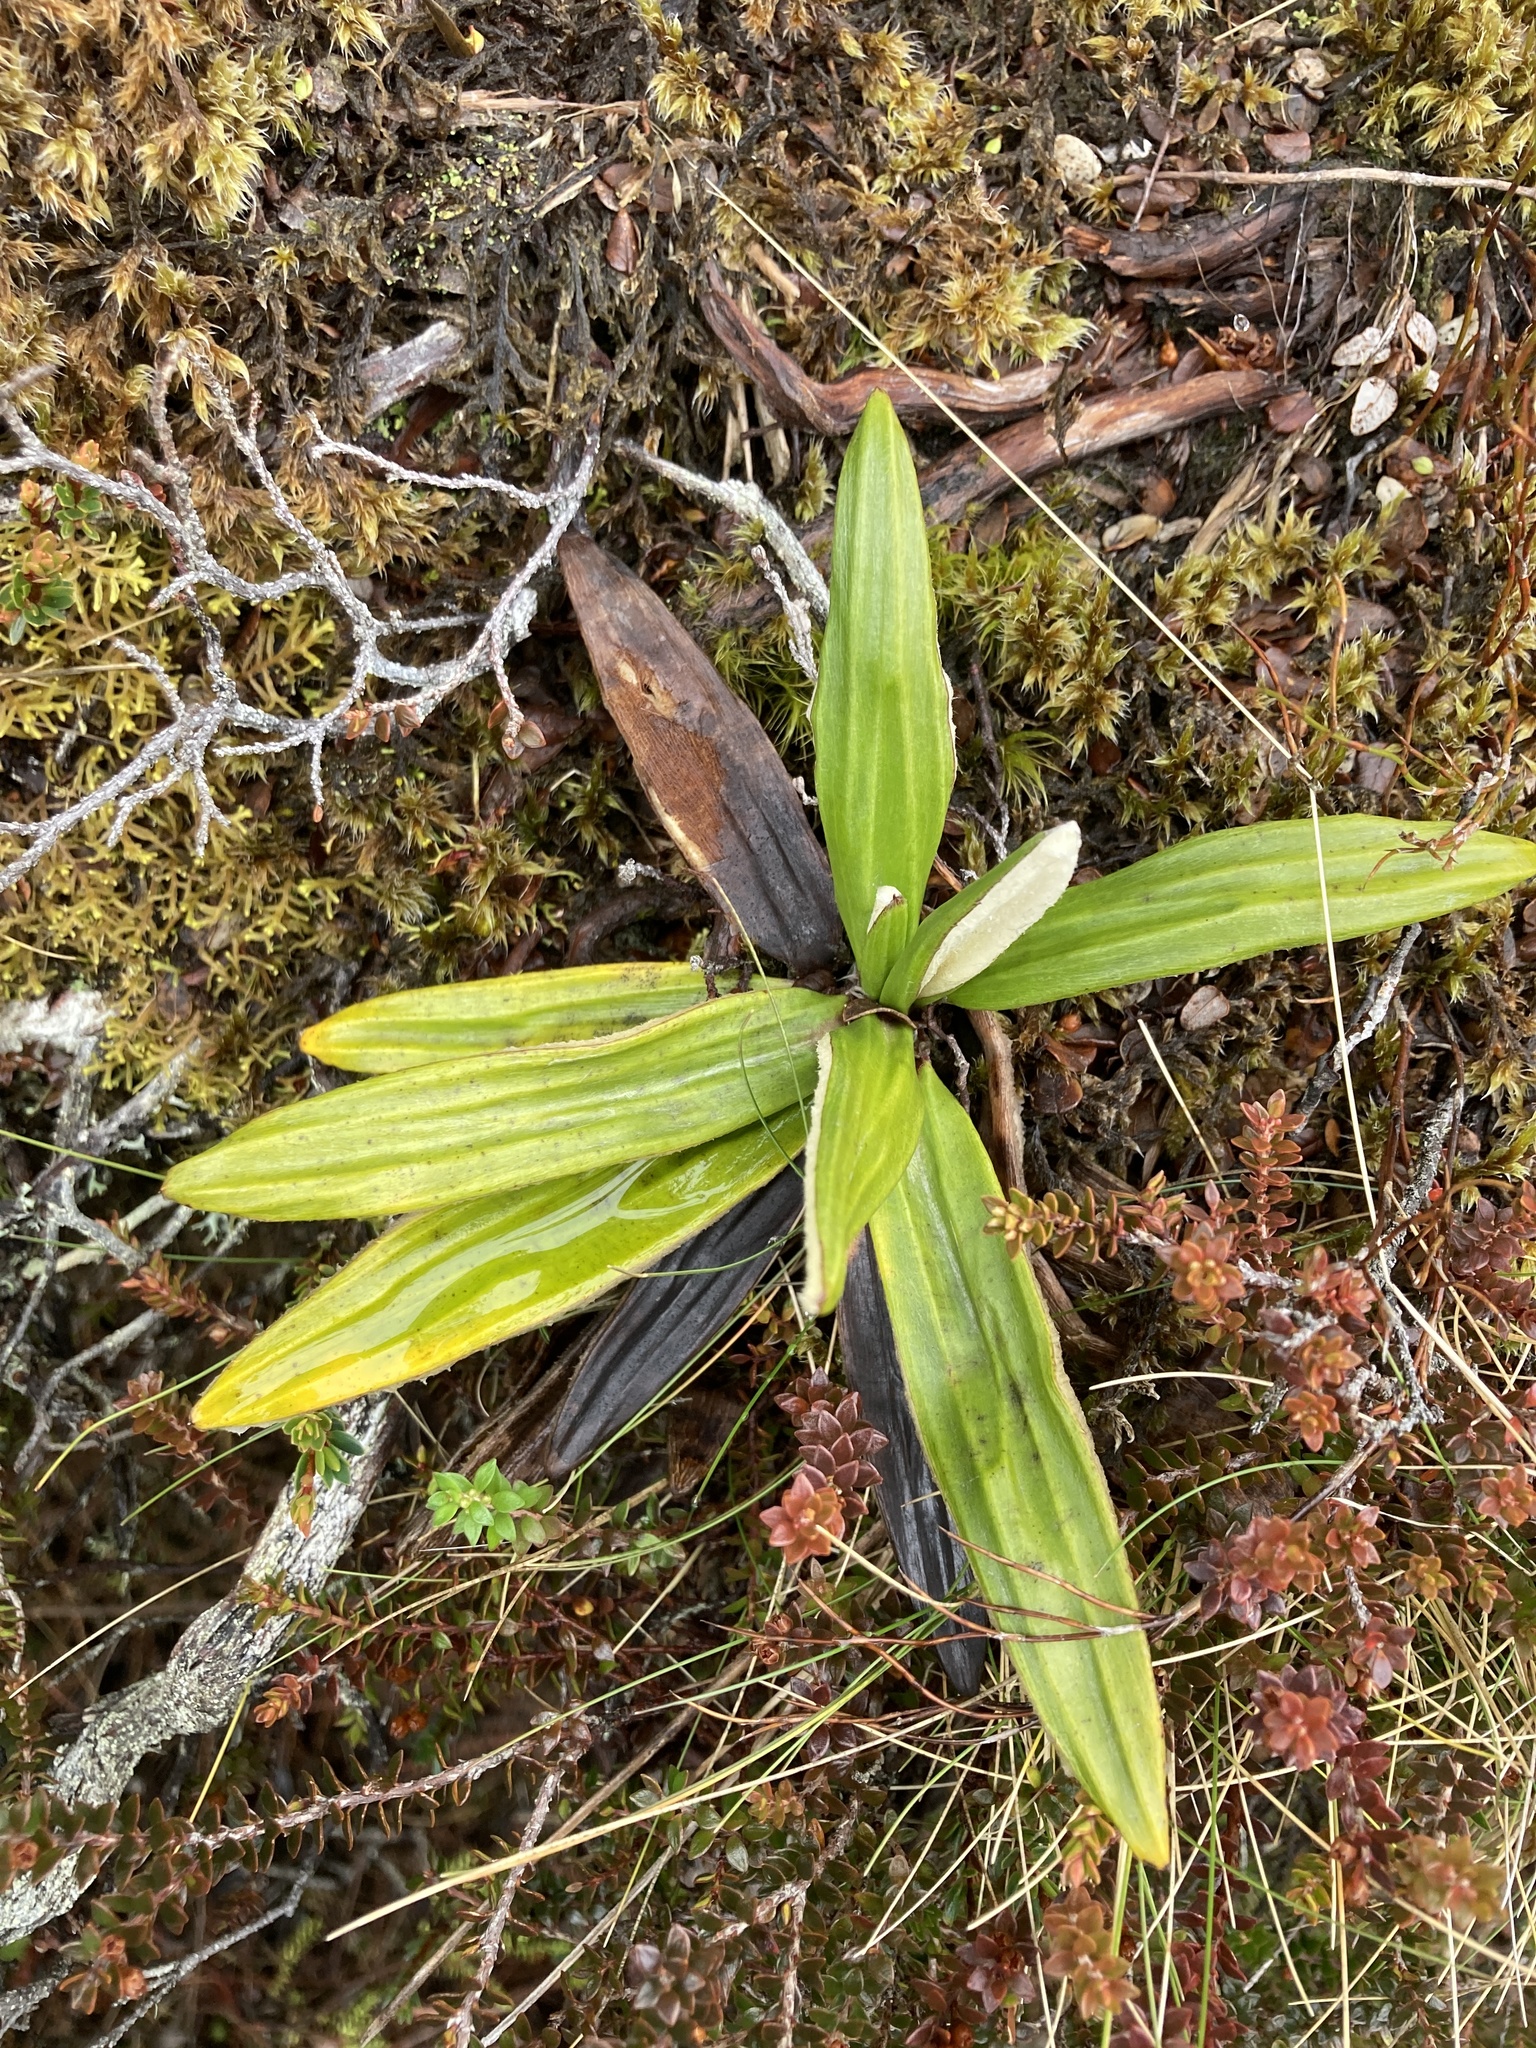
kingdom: Plantae
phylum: Tracheophyta
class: Magnoliopsida
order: Asterales
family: Asteraceae
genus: Celmisia
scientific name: Celmisia spectabilis
